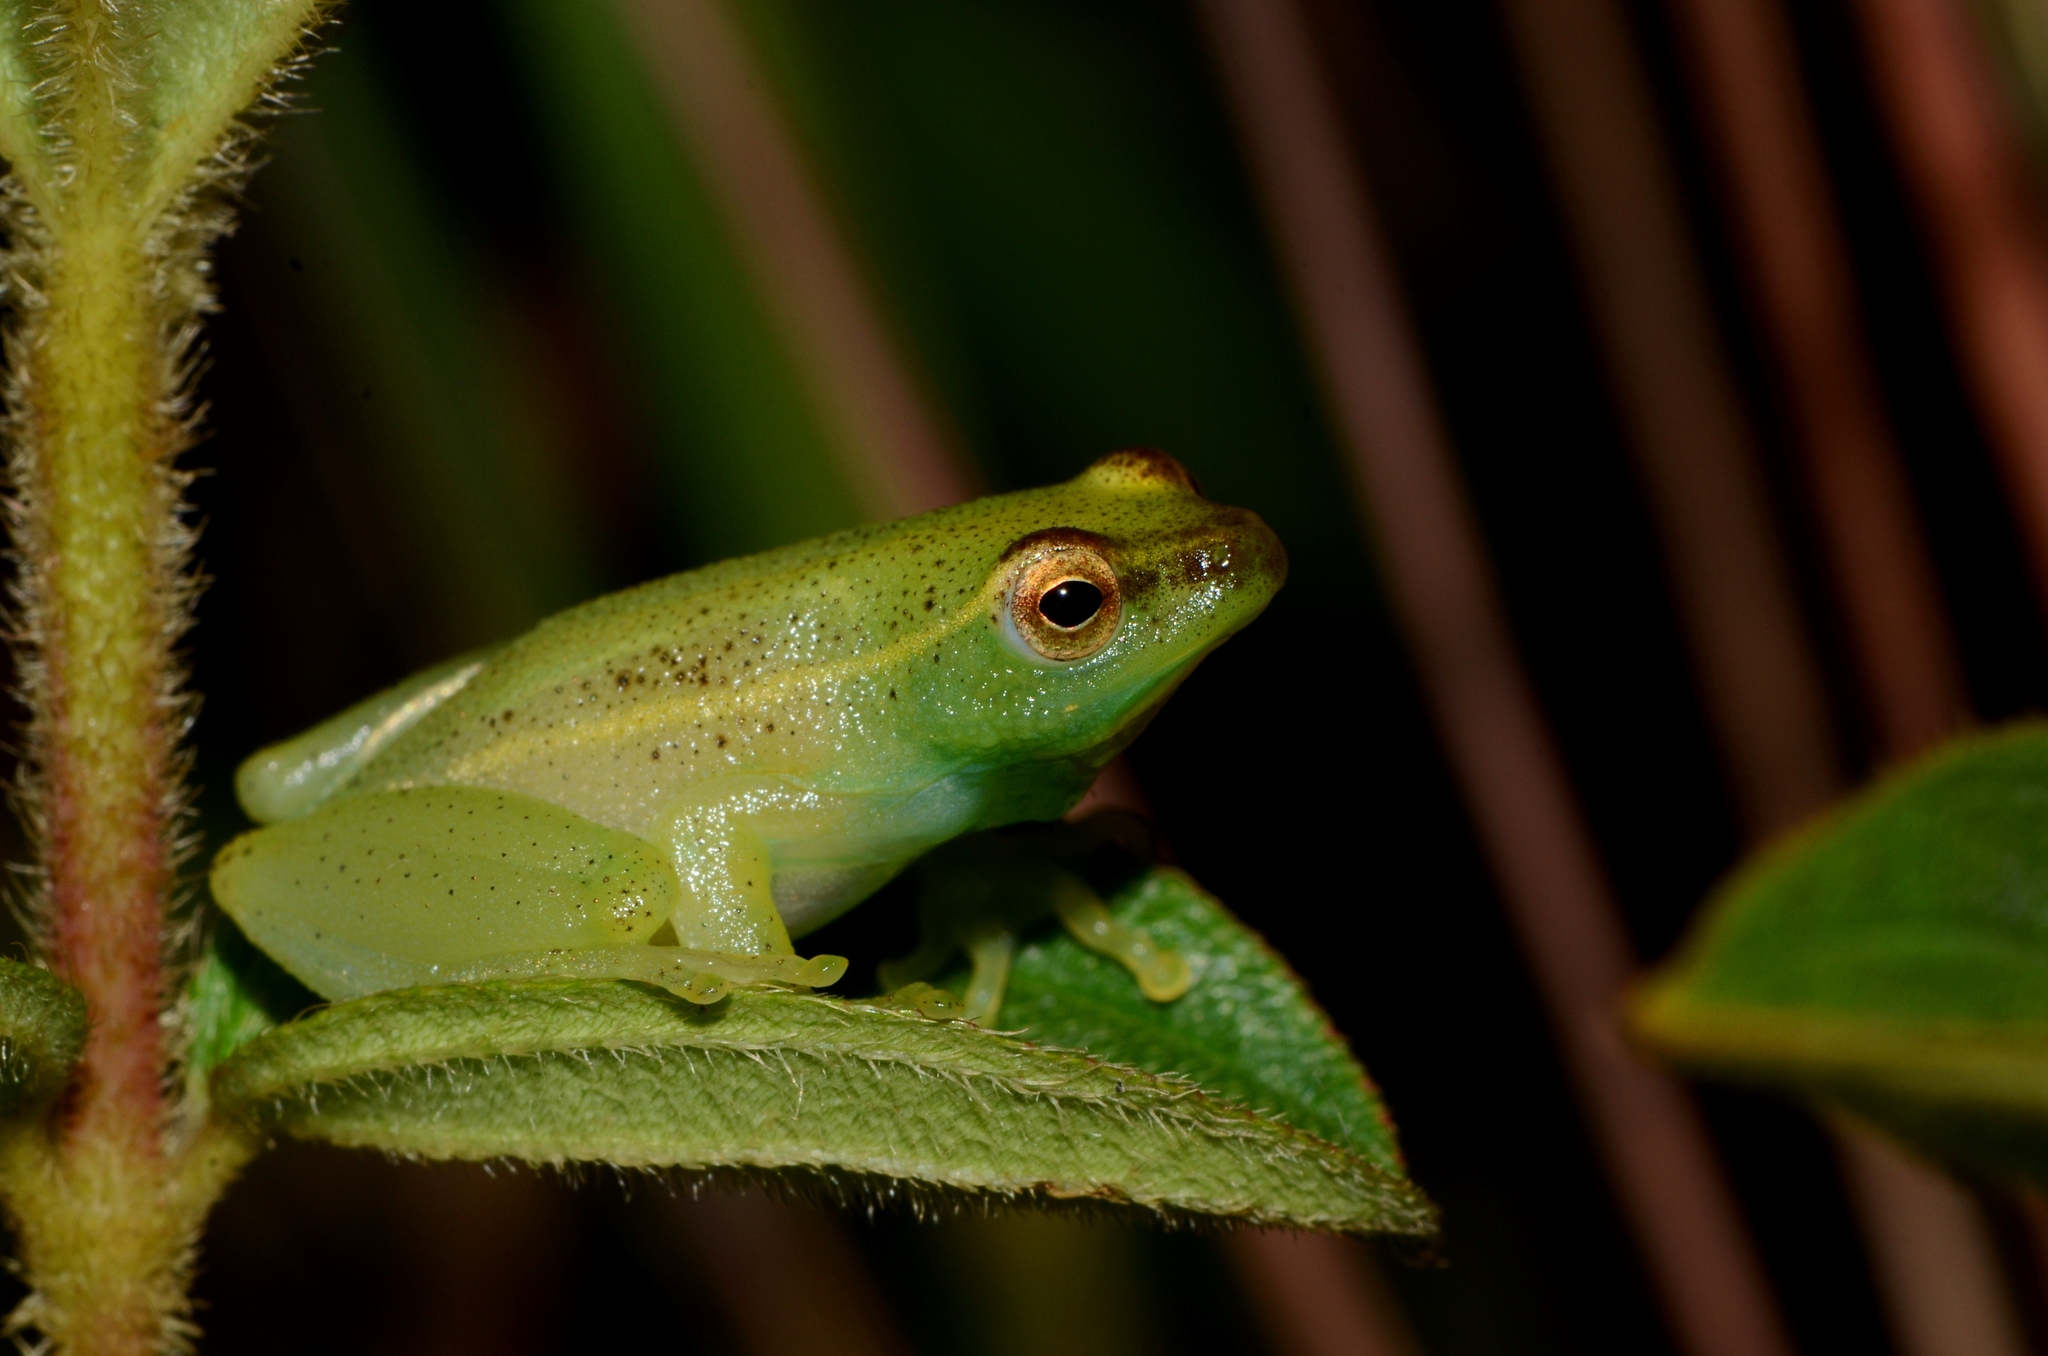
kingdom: Animalia
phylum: Chordata
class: Amphibia
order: Anura
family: Hyperoliidae
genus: Hyperolius
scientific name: Hyperolius adspersus
